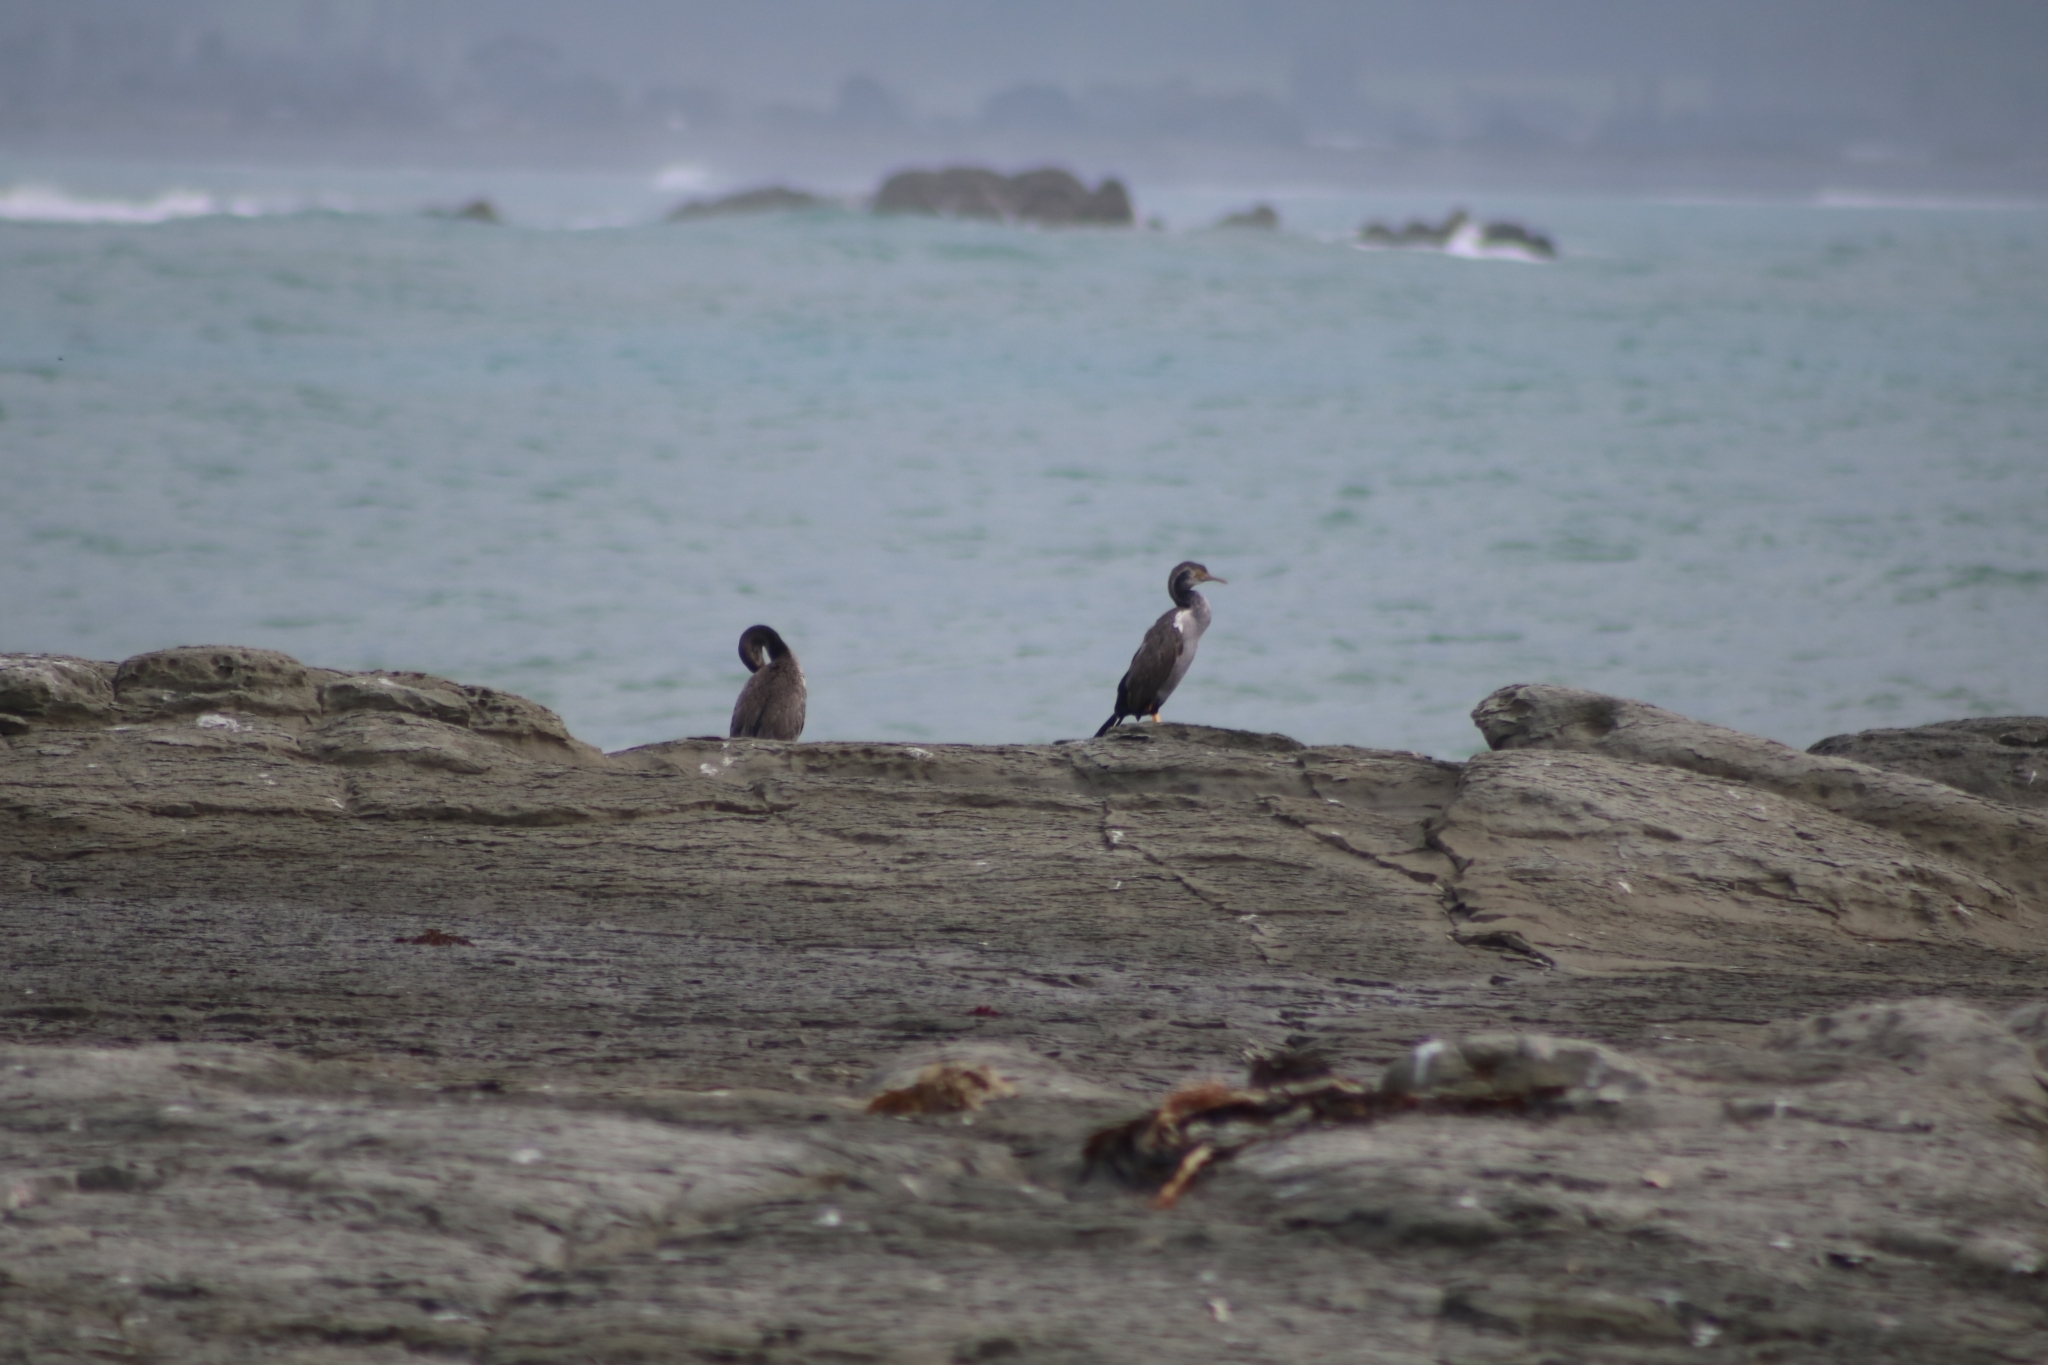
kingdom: Animalia
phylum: Chordata
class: Aves
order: Suliformes
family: Phalacrocoracidae
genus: Phalacrocorax
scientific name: Phalacrocorax punctatus
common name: Spotted shag
